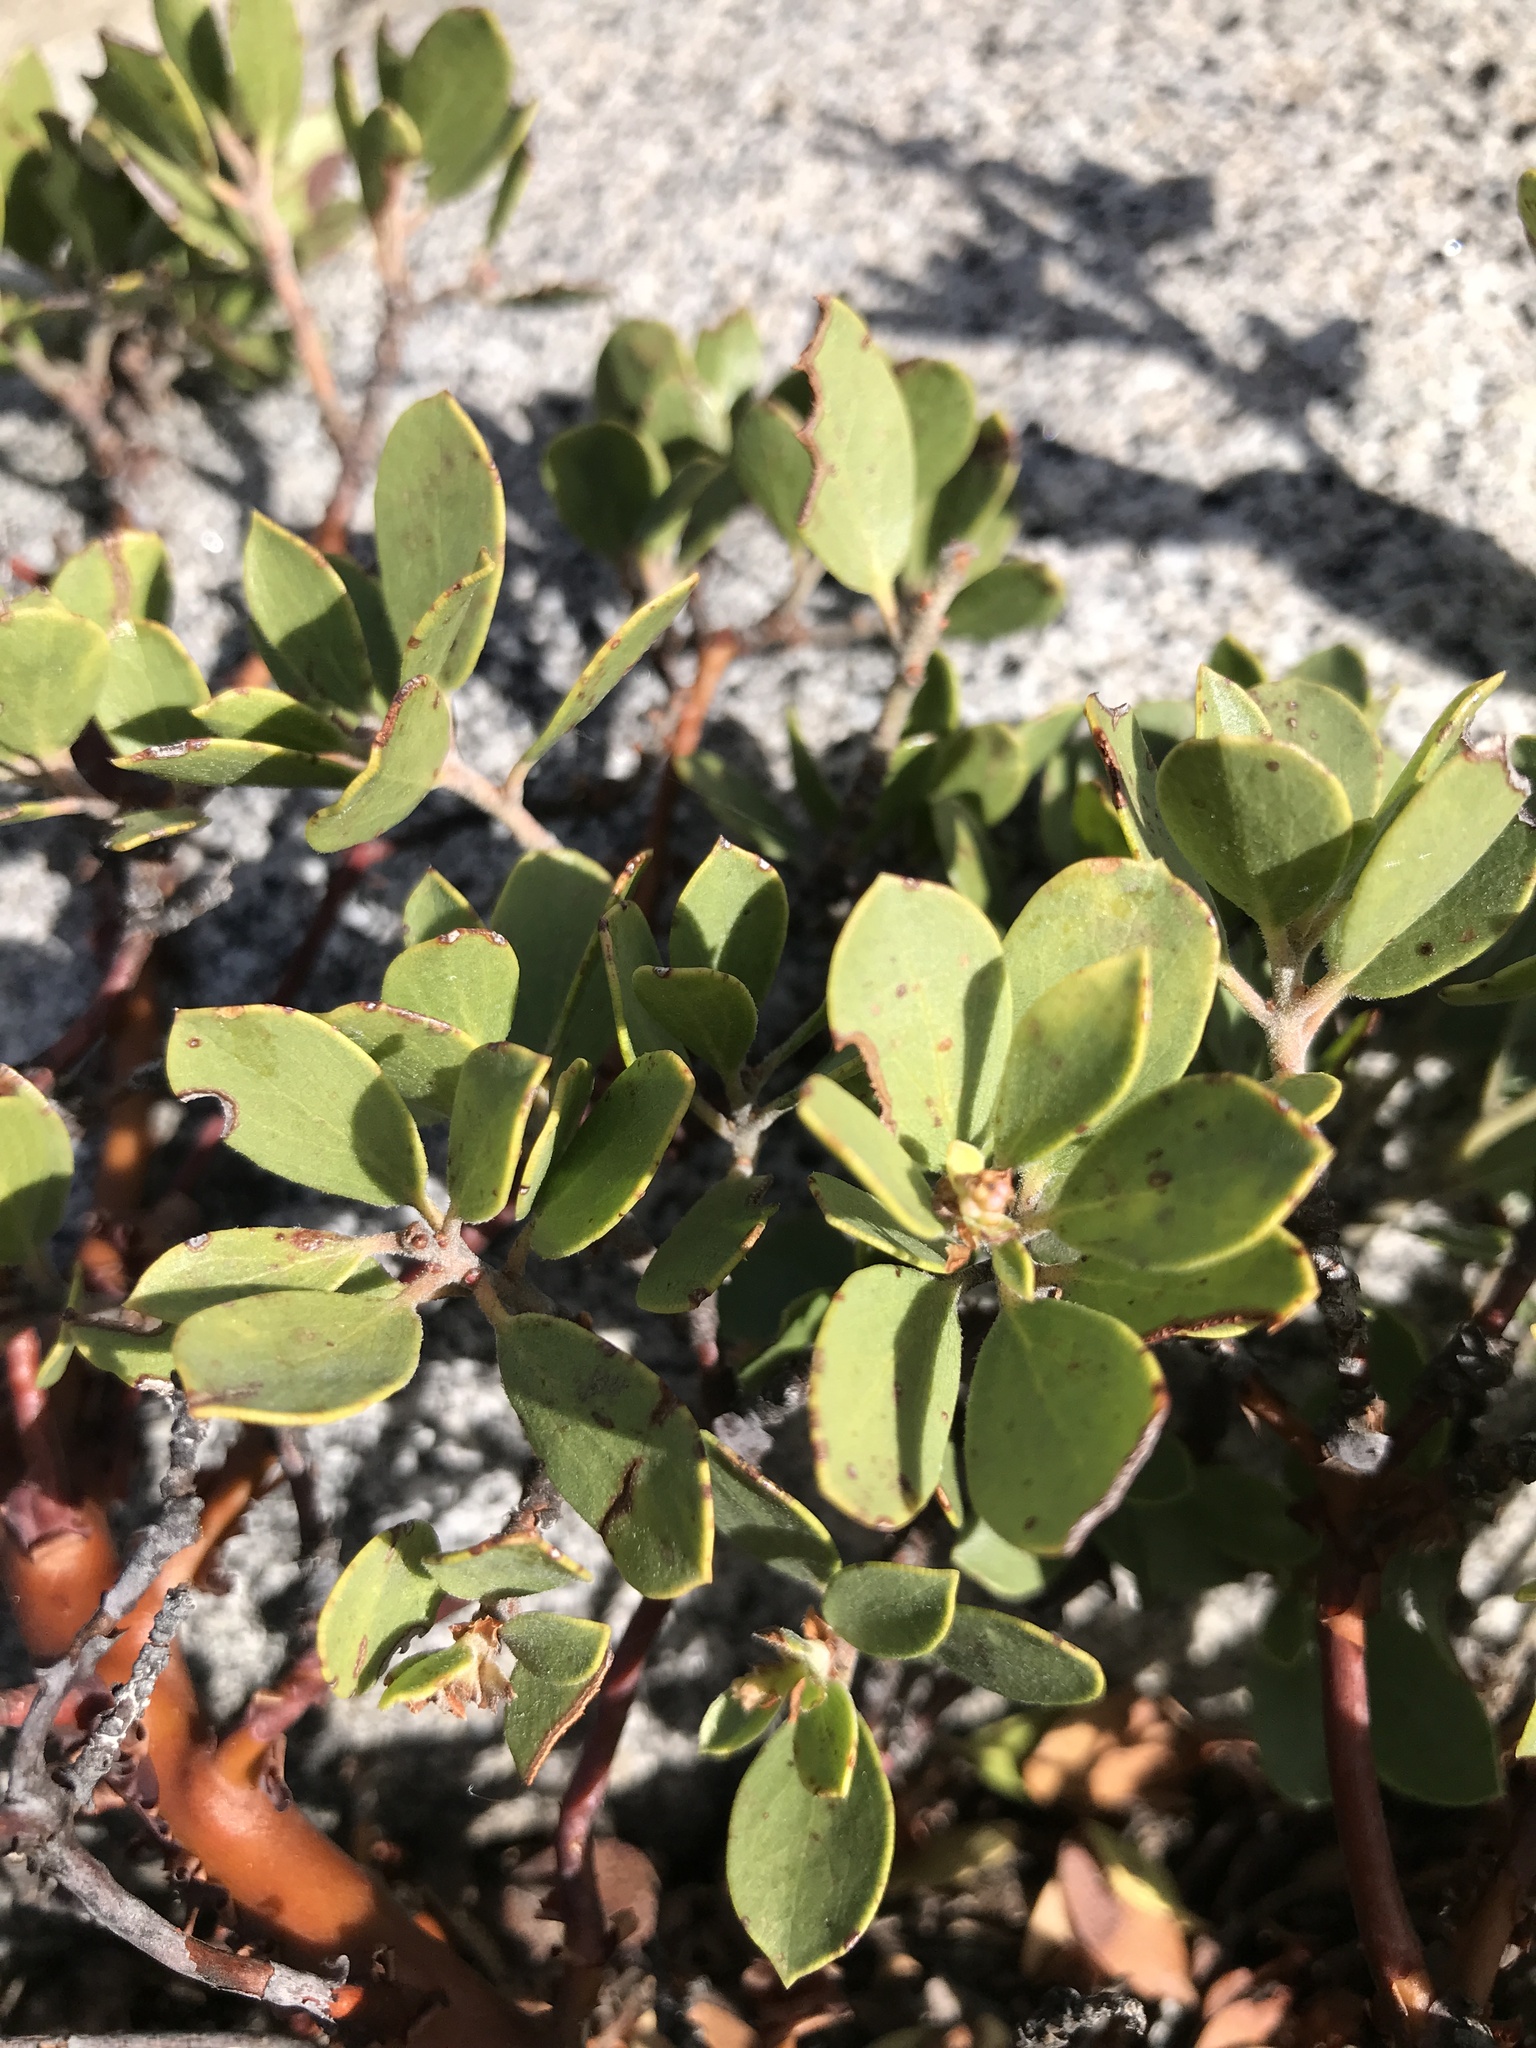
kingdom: Plantae
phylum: Tracheophyta
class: Magnoliopsida
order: Ericales
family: Ericaceae
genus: Arctostaphylos
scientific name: Arctostaphylos nevadensis
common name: Pinemat manzanita
